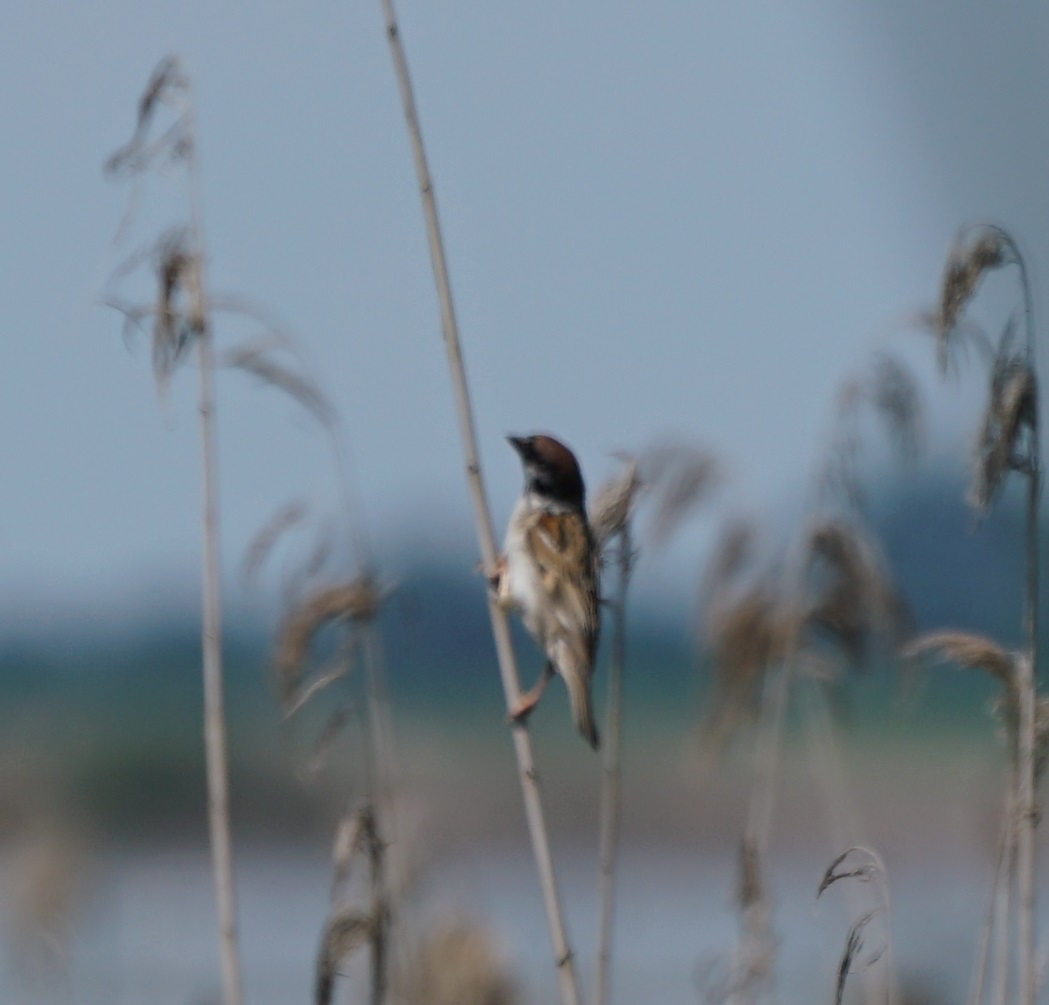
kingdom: Animalia
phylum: Chordata
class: Aves
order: Passeriformes
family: Passeridae
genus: Passer
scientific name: Passer montanus
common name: Eurasian tree sparrow
